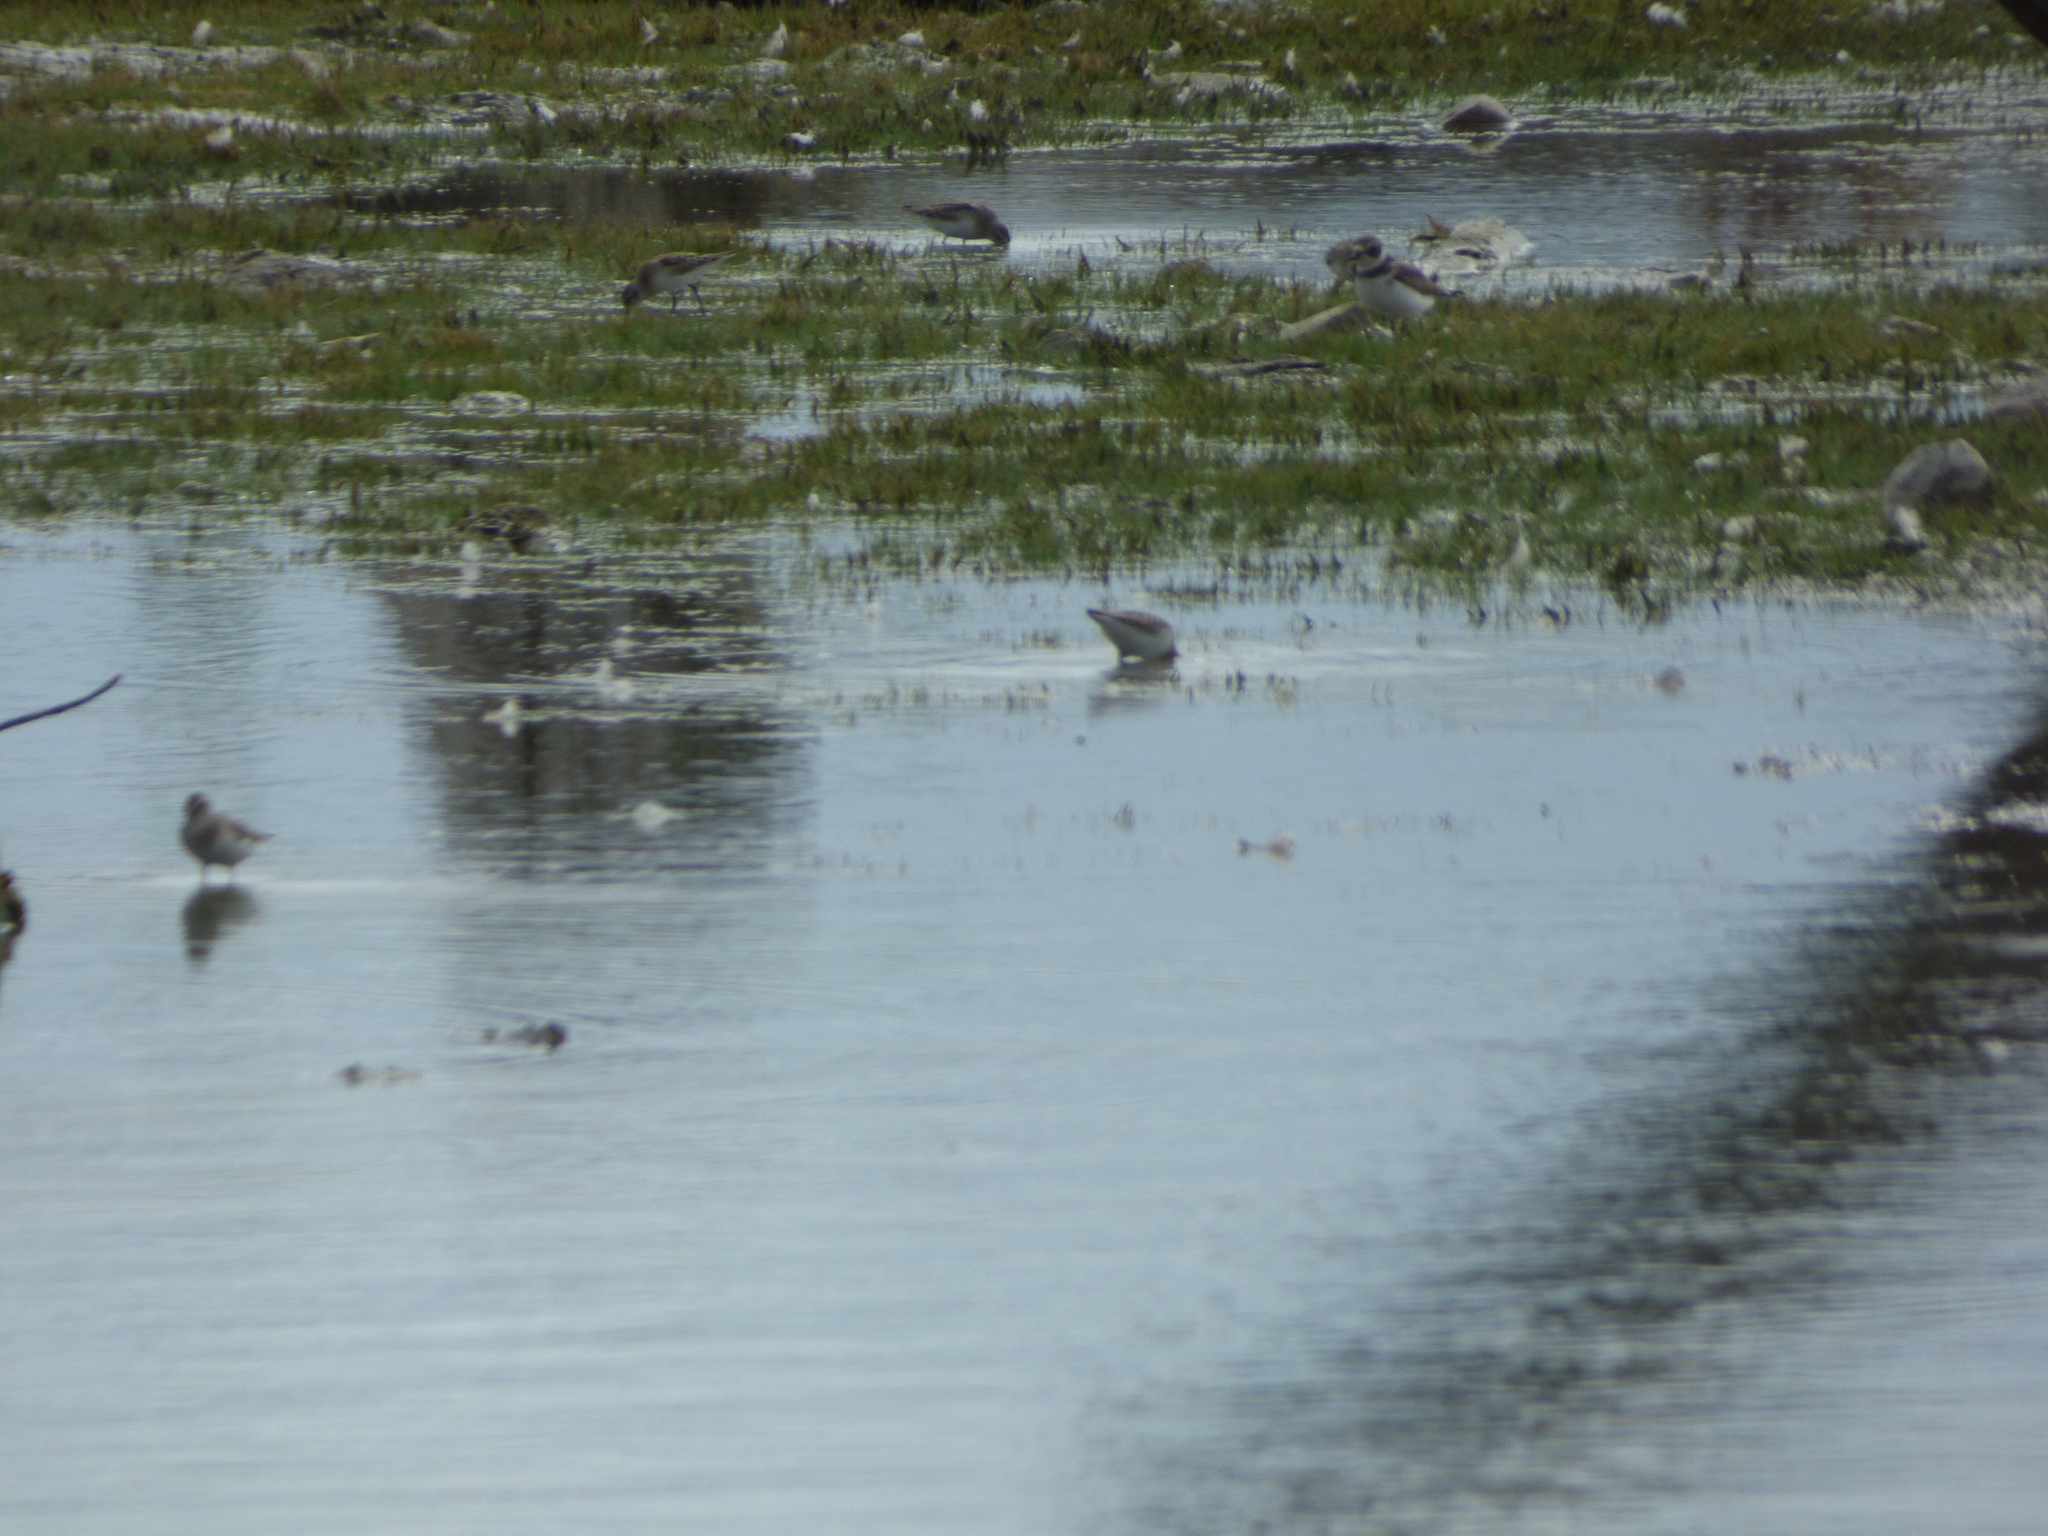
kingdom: Animalia
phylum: Chordata
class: Aves
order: Charadriiformes
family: Charadriidae
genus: Charadrius
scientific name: Charadrius semipalmatus
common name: Semipalmated plover
